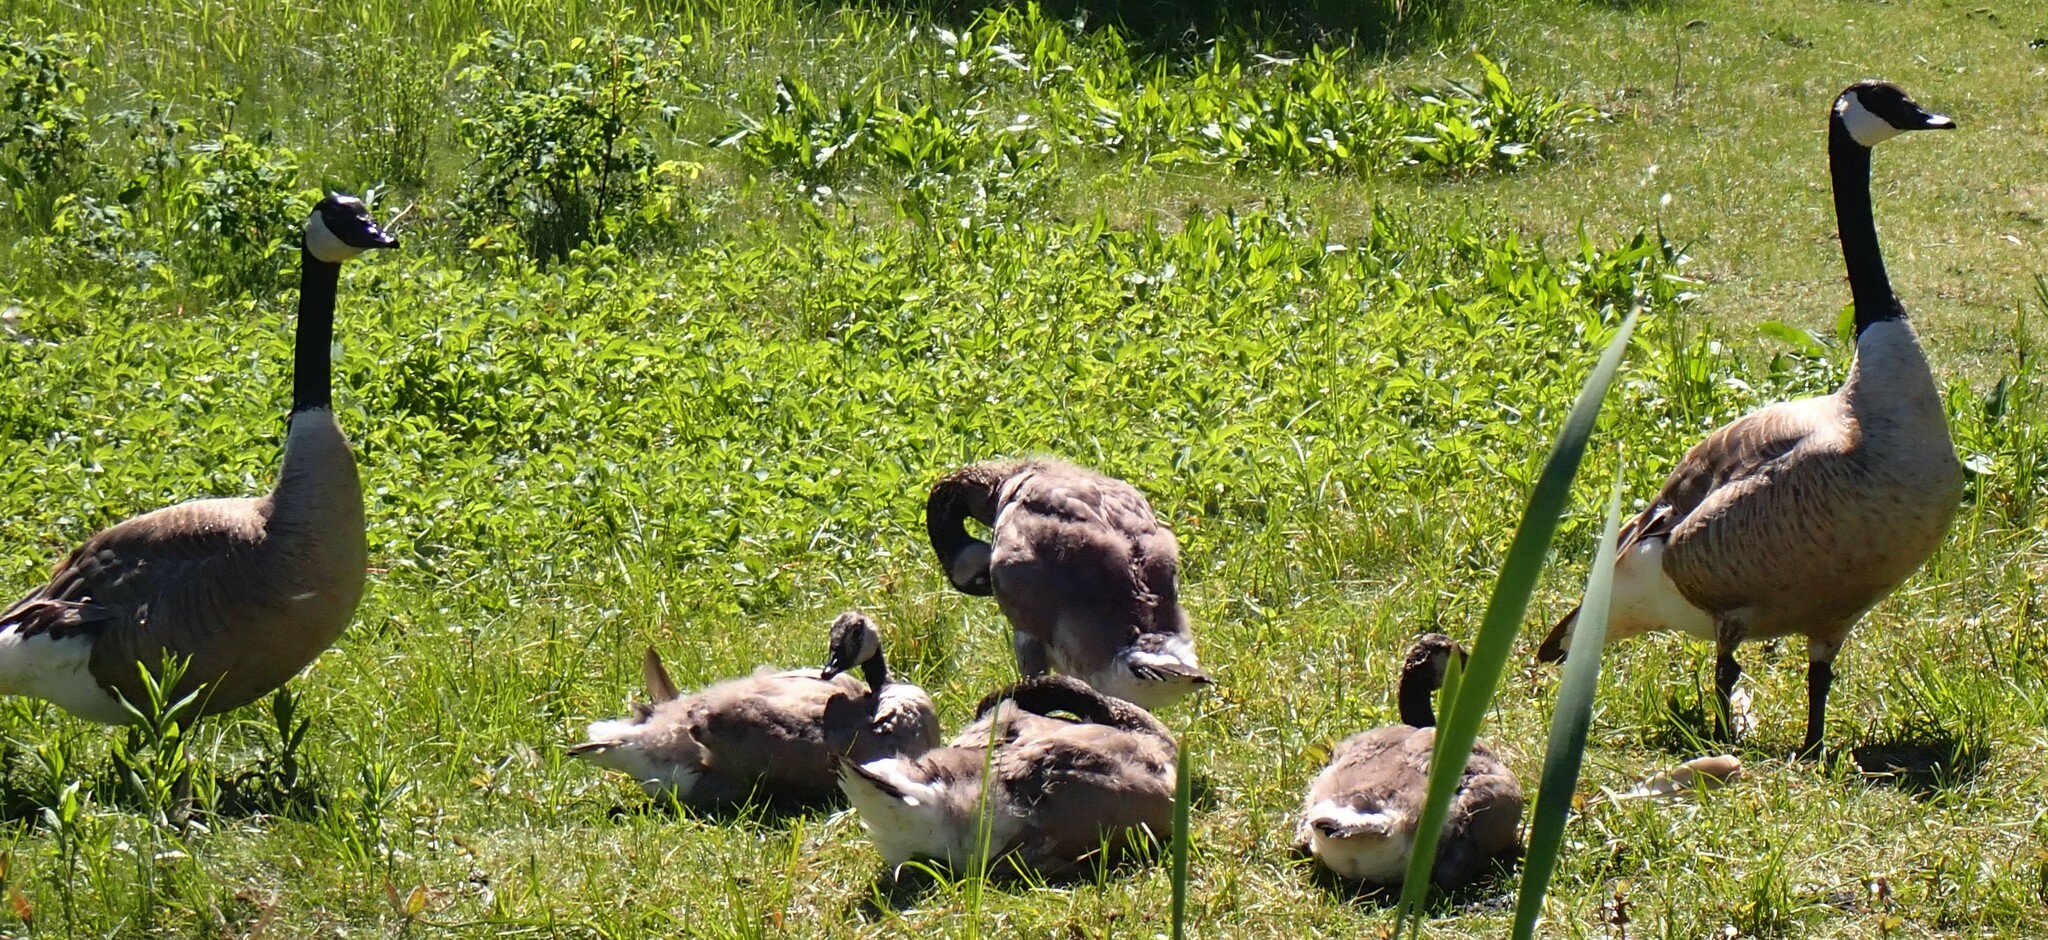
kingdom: Animalia
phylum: Chordata
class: Aves
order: Anseriformes
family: Anatidae
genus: Branta
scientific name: Branta canadensis
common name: Canada goose
